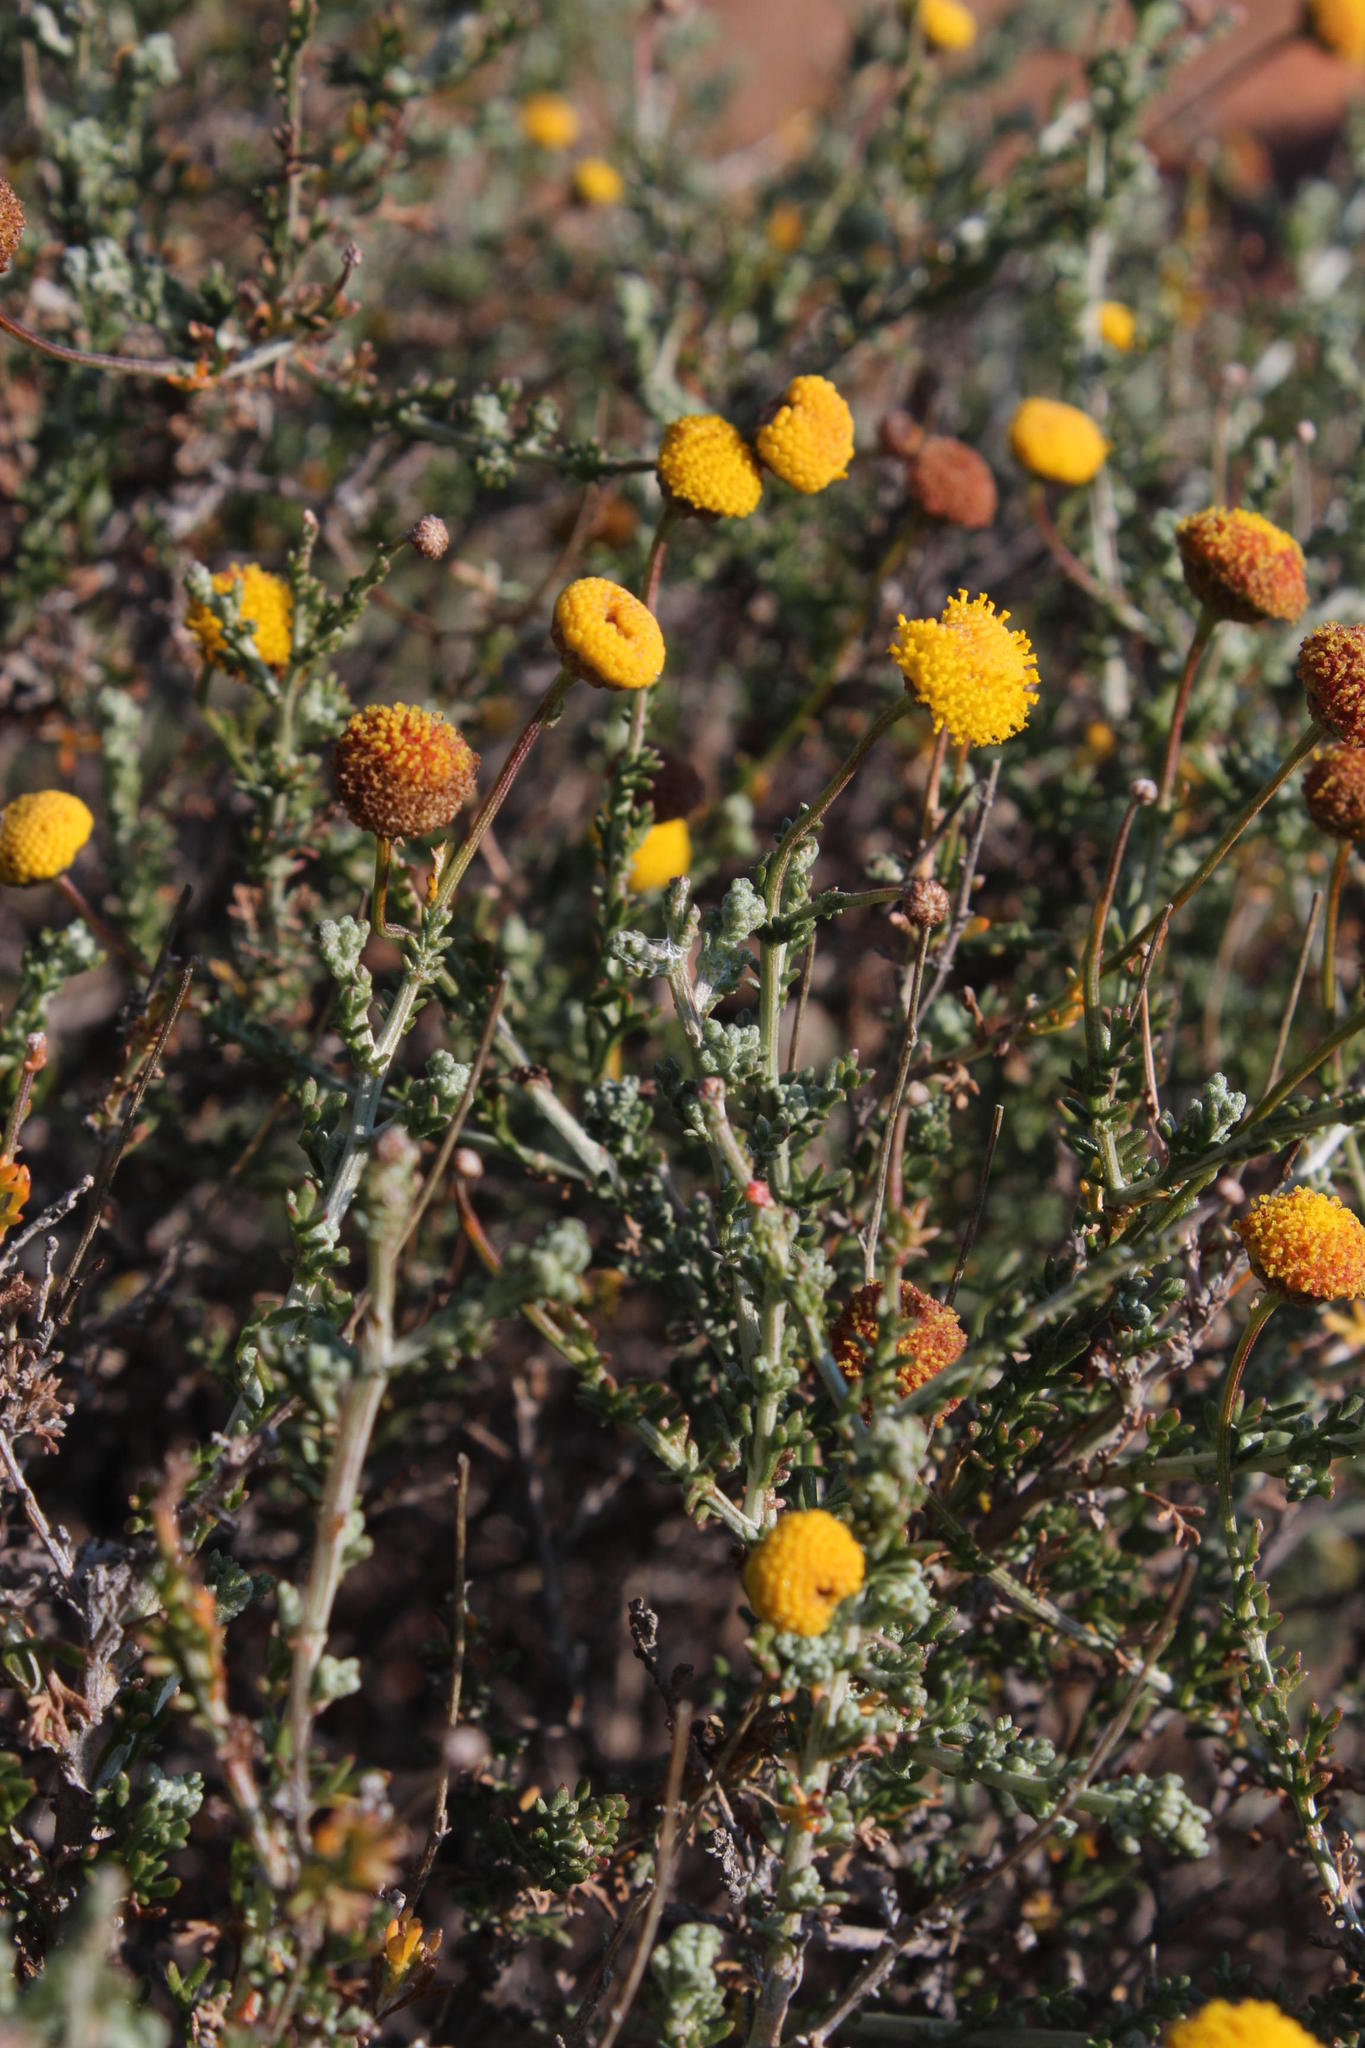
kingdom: Plantae
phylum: Tracheophyta
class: Magnoliopsida
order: Asterales
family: Asteraceae
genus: Chrysocoma
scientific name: Chrysocoma ciliata
